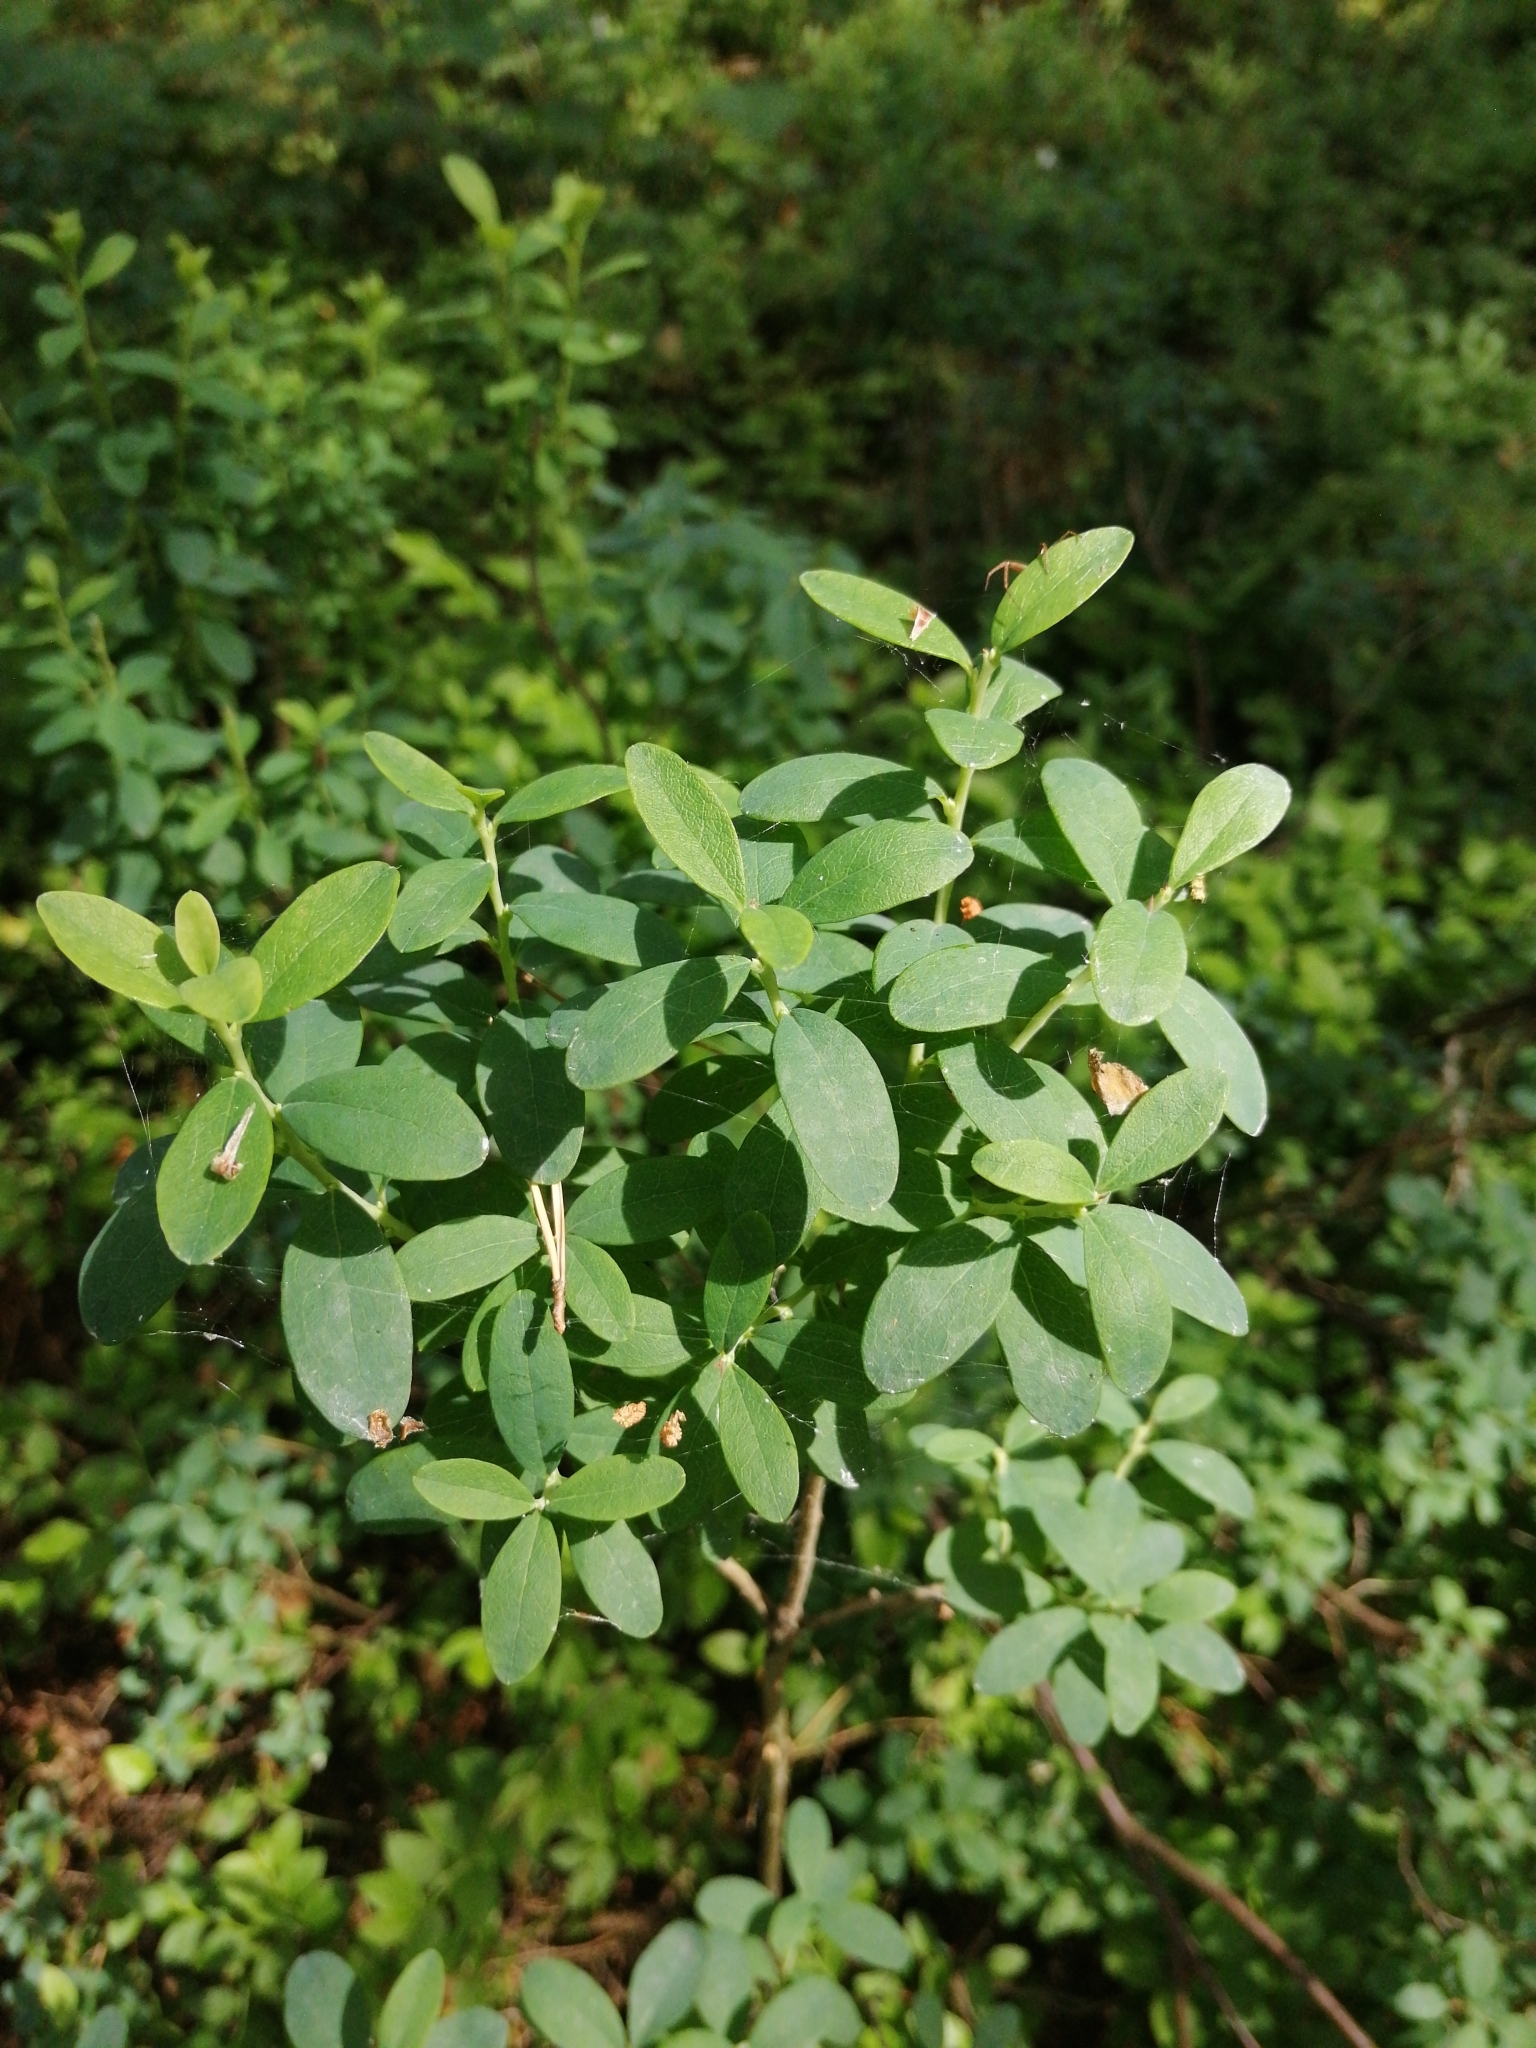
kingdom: Plantae
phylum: Tracheophyta
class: Magnoliopsida
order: Ericales
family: Ericaceae
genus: Vaccinium
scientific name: Vaccinium uliginosum
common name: Bog bilberry
